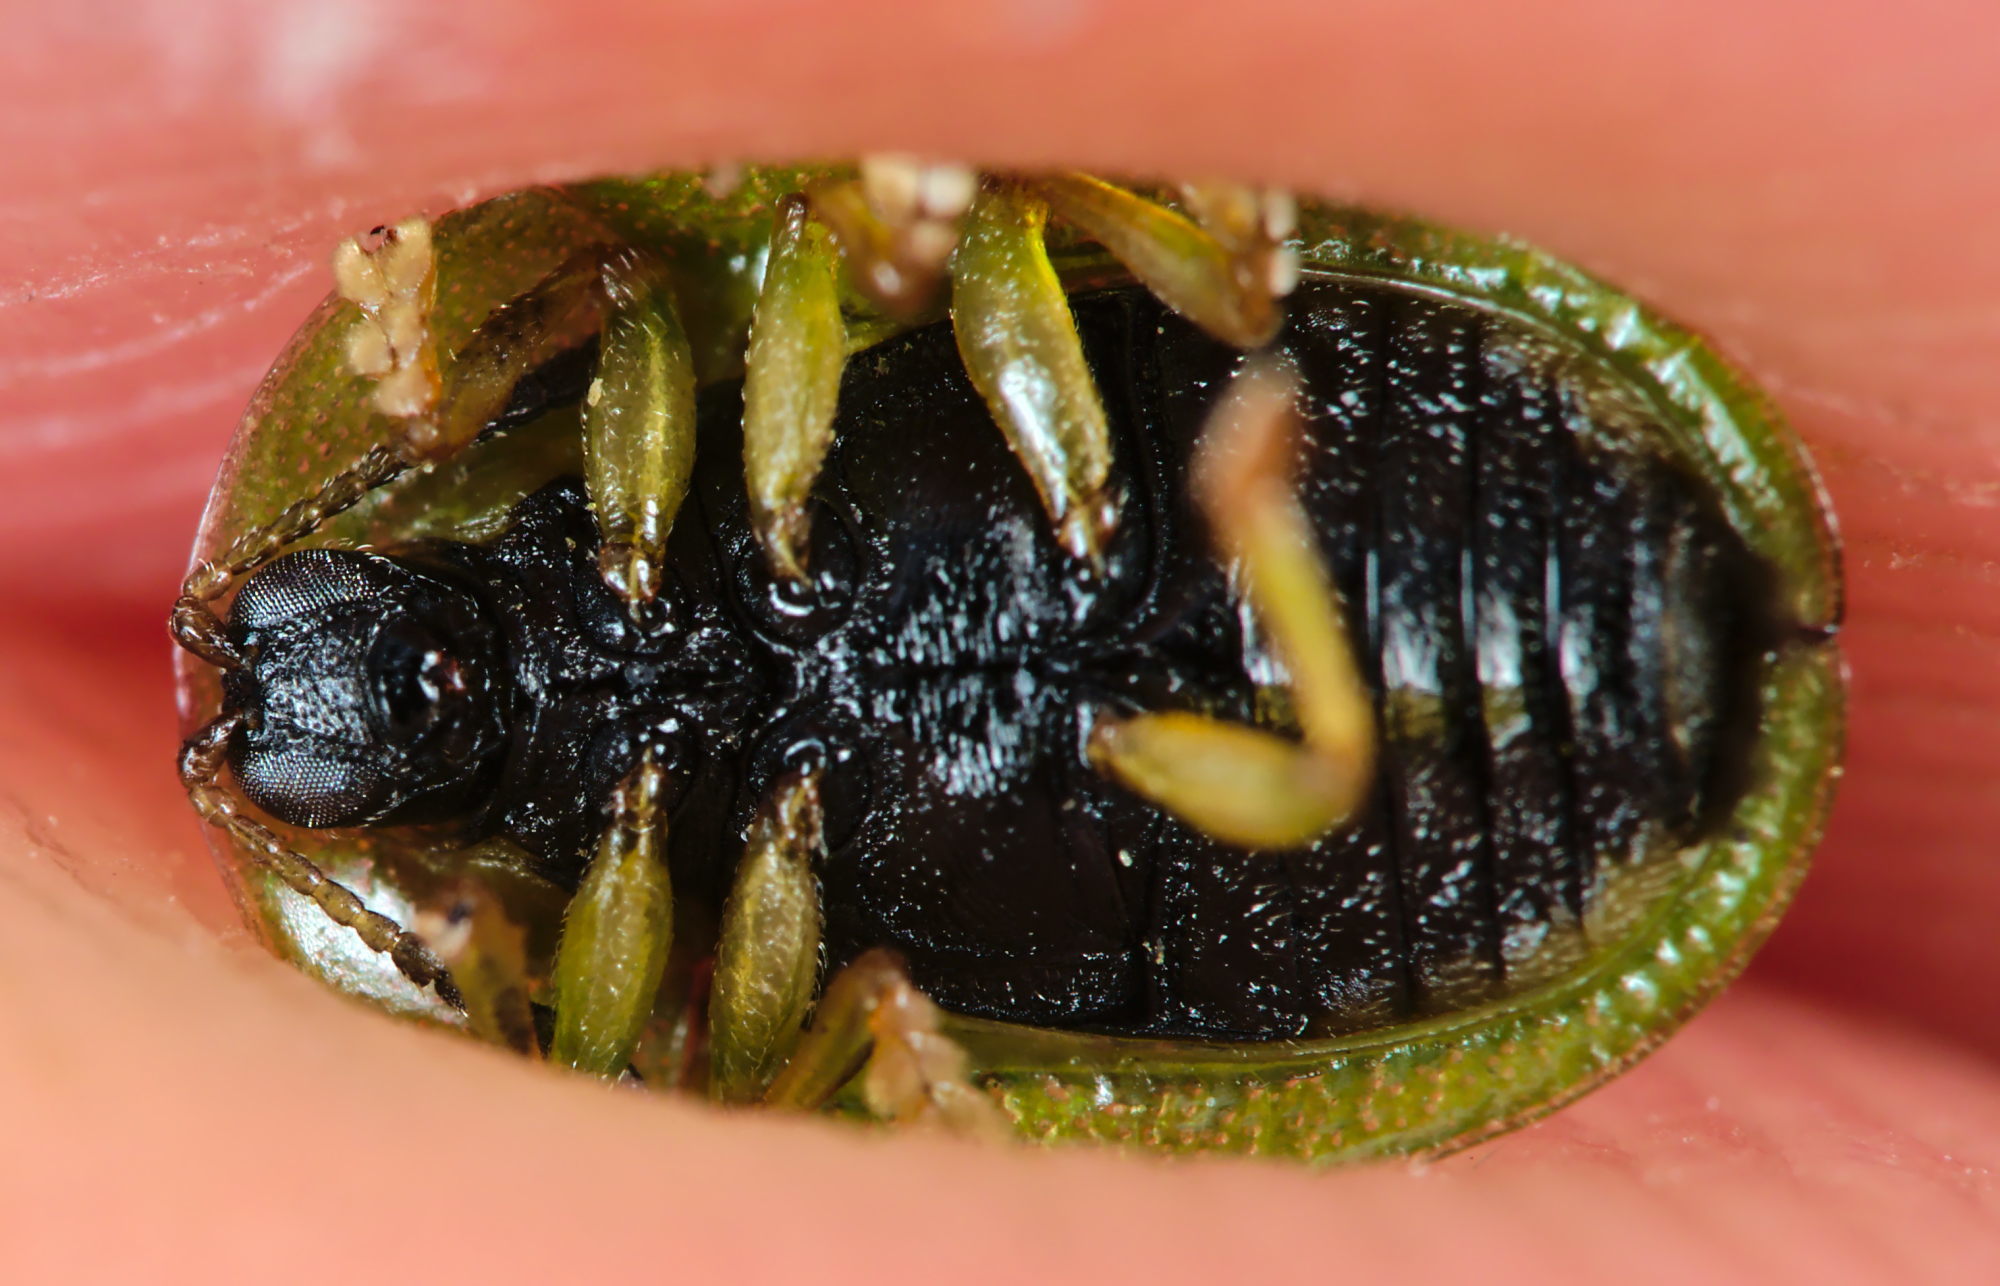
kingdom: Animalia
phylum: Arthropoda
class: Insecta
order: Coleoptera
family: Chrysomelidae
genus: Cassida
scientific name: Cassida stigmatica
